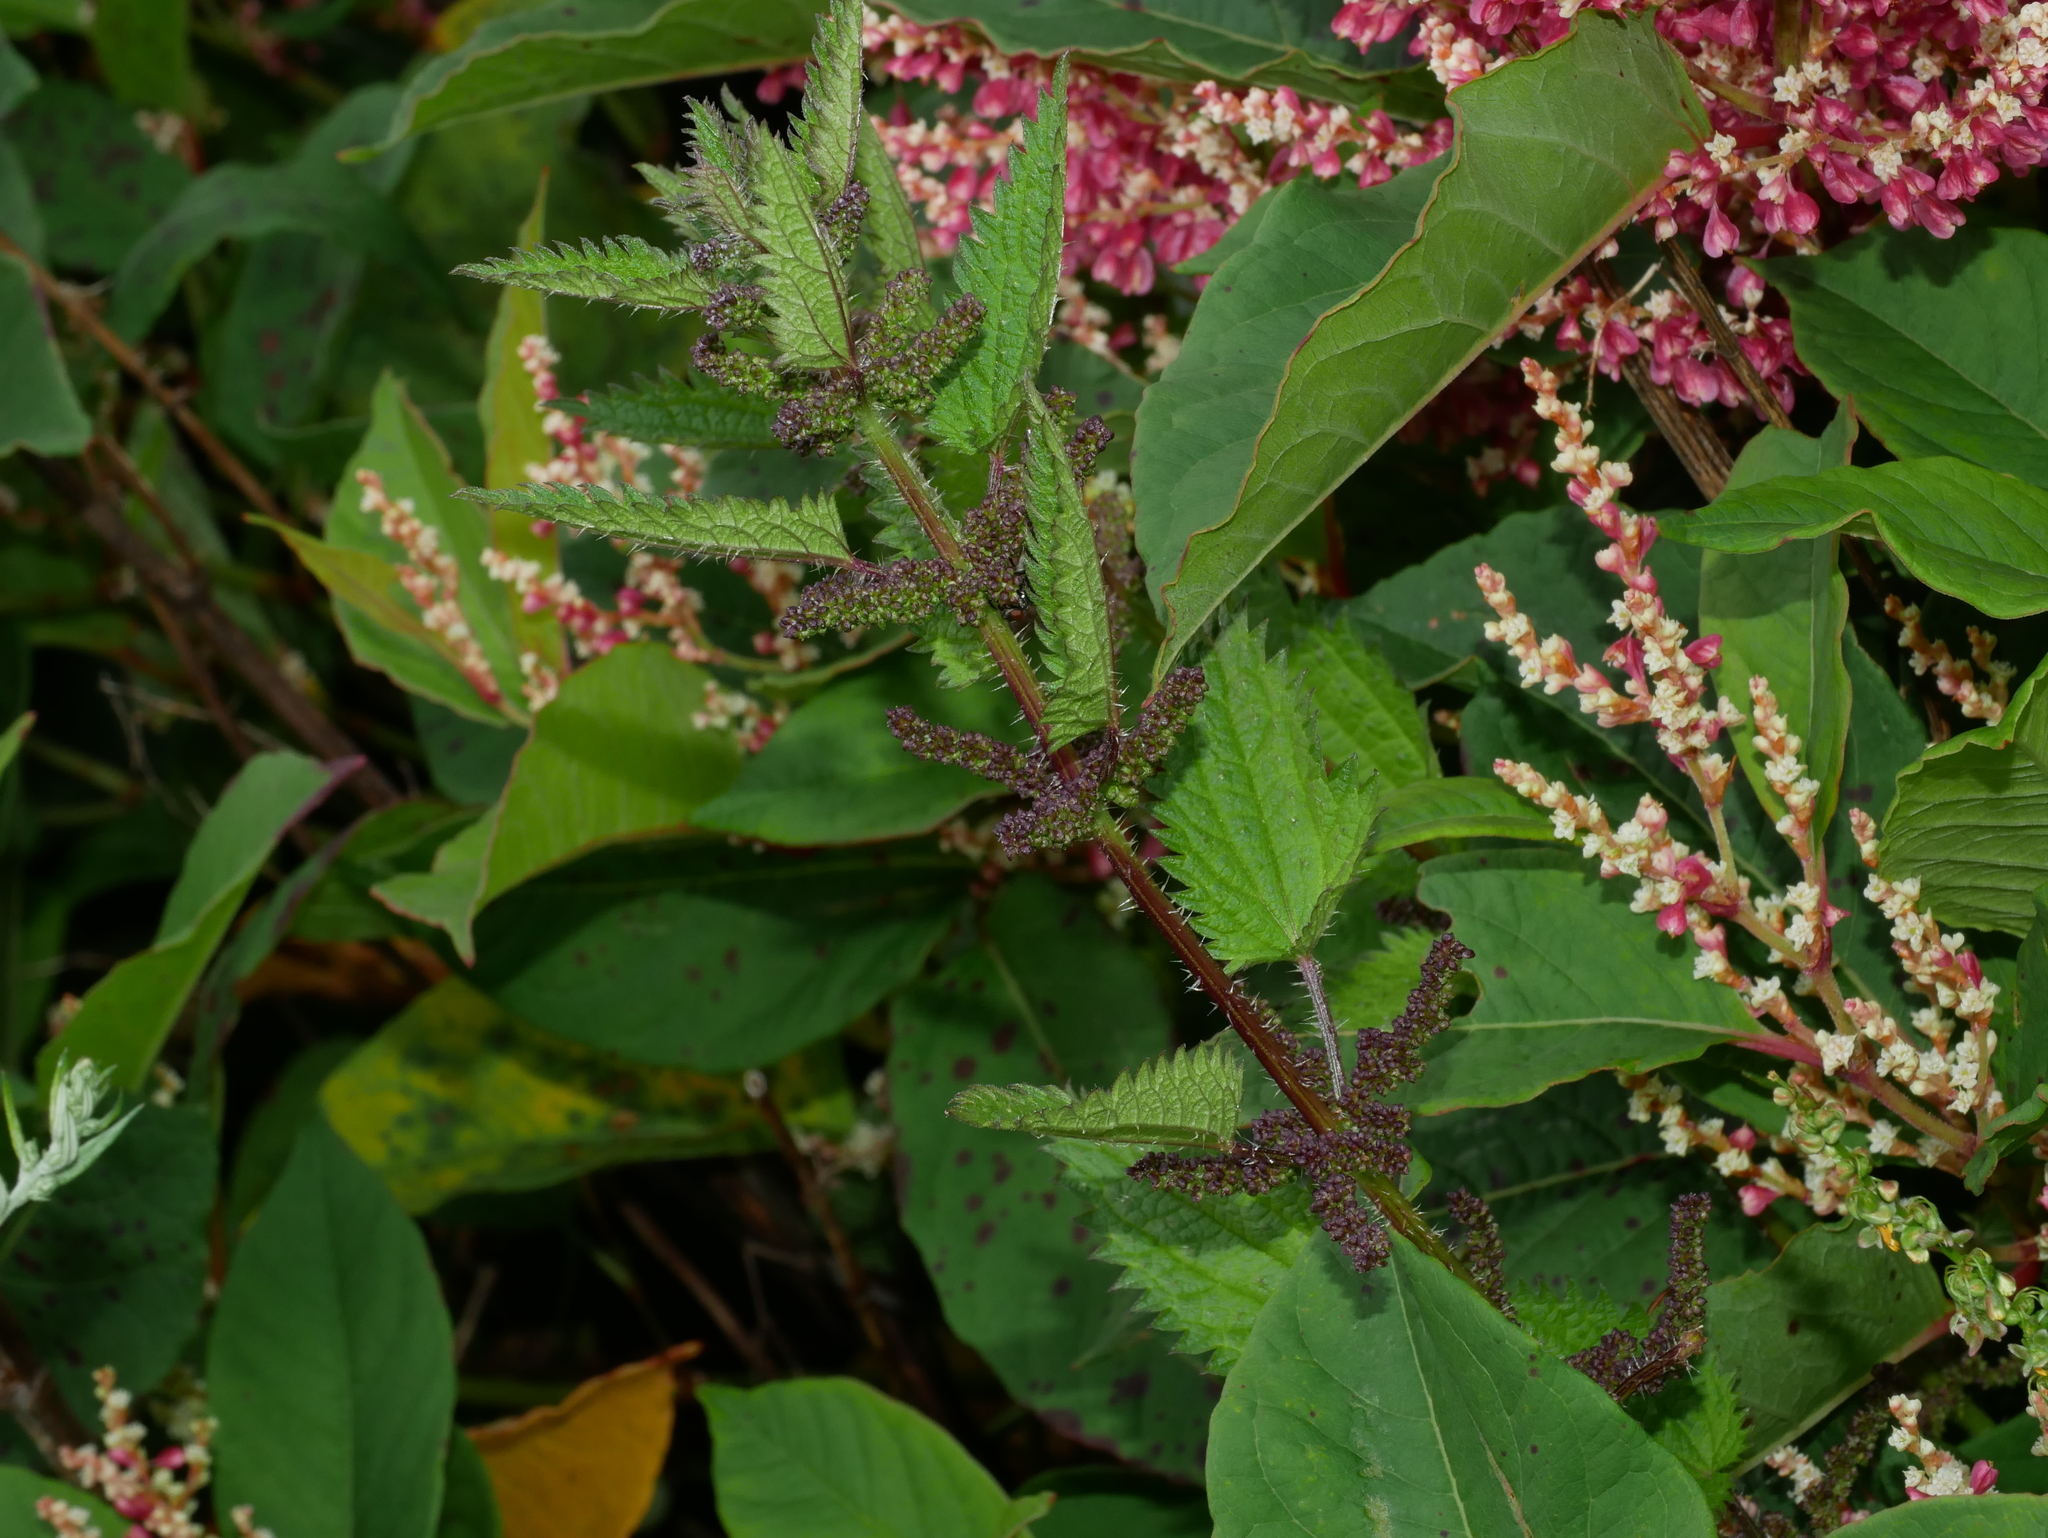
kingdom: Plantae
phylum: Tracheophyta
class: Magnoliopsida
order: Rosales
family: Urticaceae
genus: Urtica
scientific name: Urtica taiwaniana
